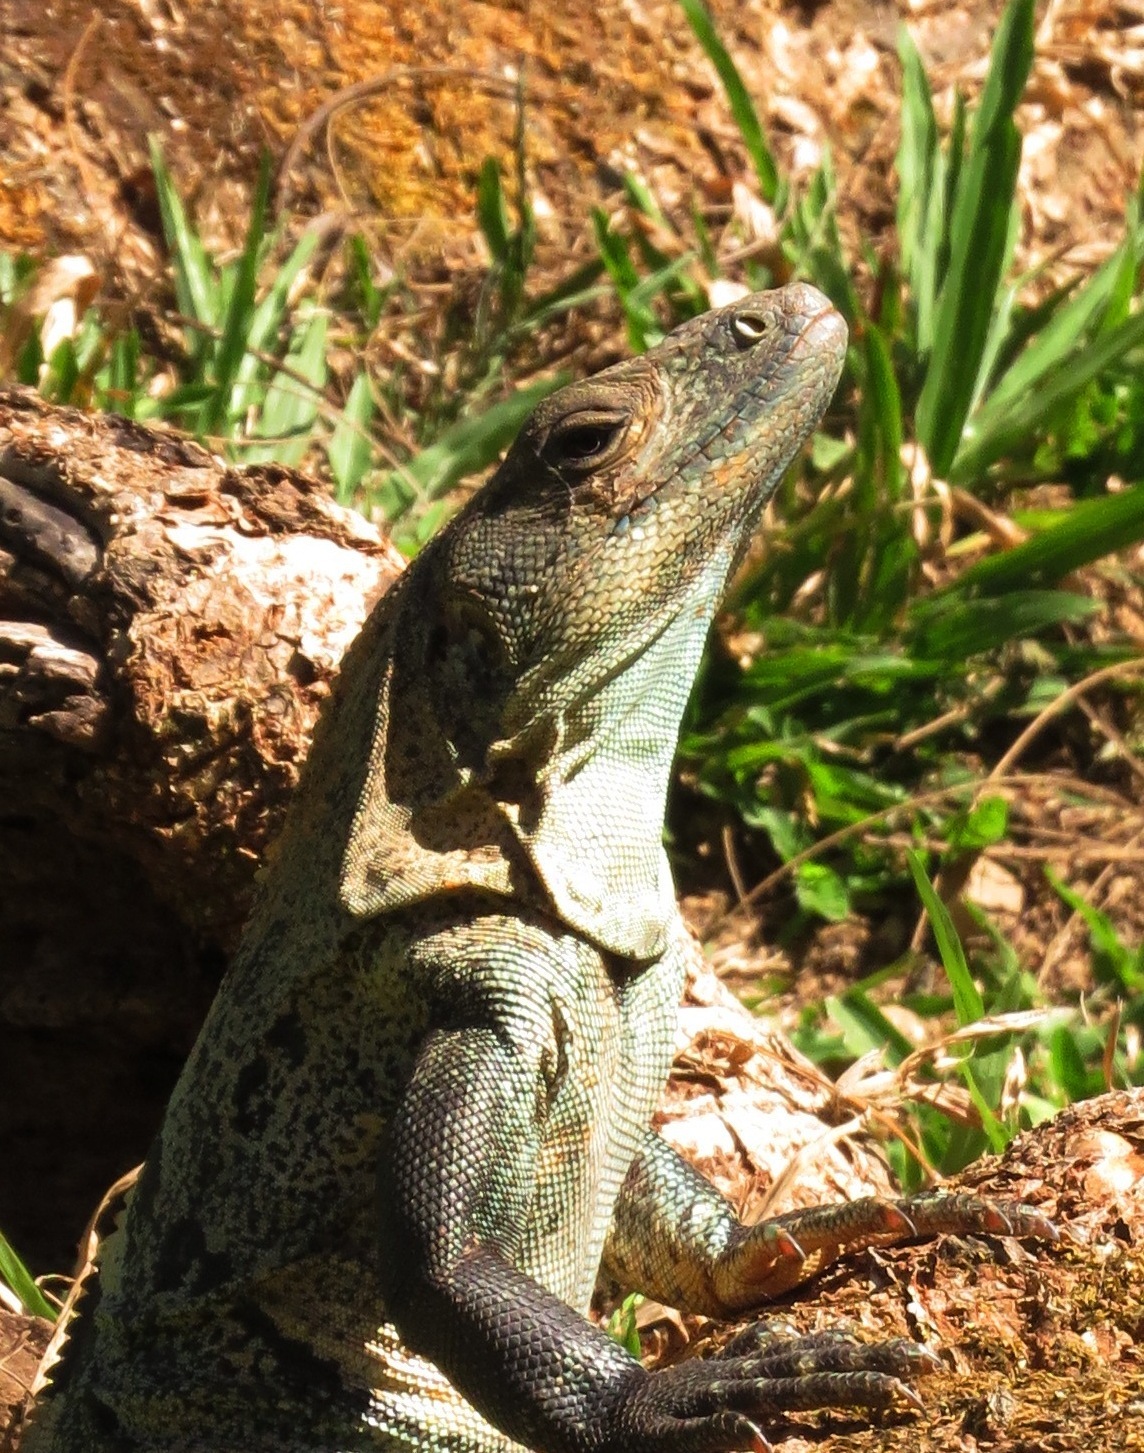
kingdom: Animalia
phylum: Chordata
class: Squamata
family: Iguanidae
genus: Ctenosaura
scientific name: Ctenosaura similis
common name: Black spiny-tailed iguana
